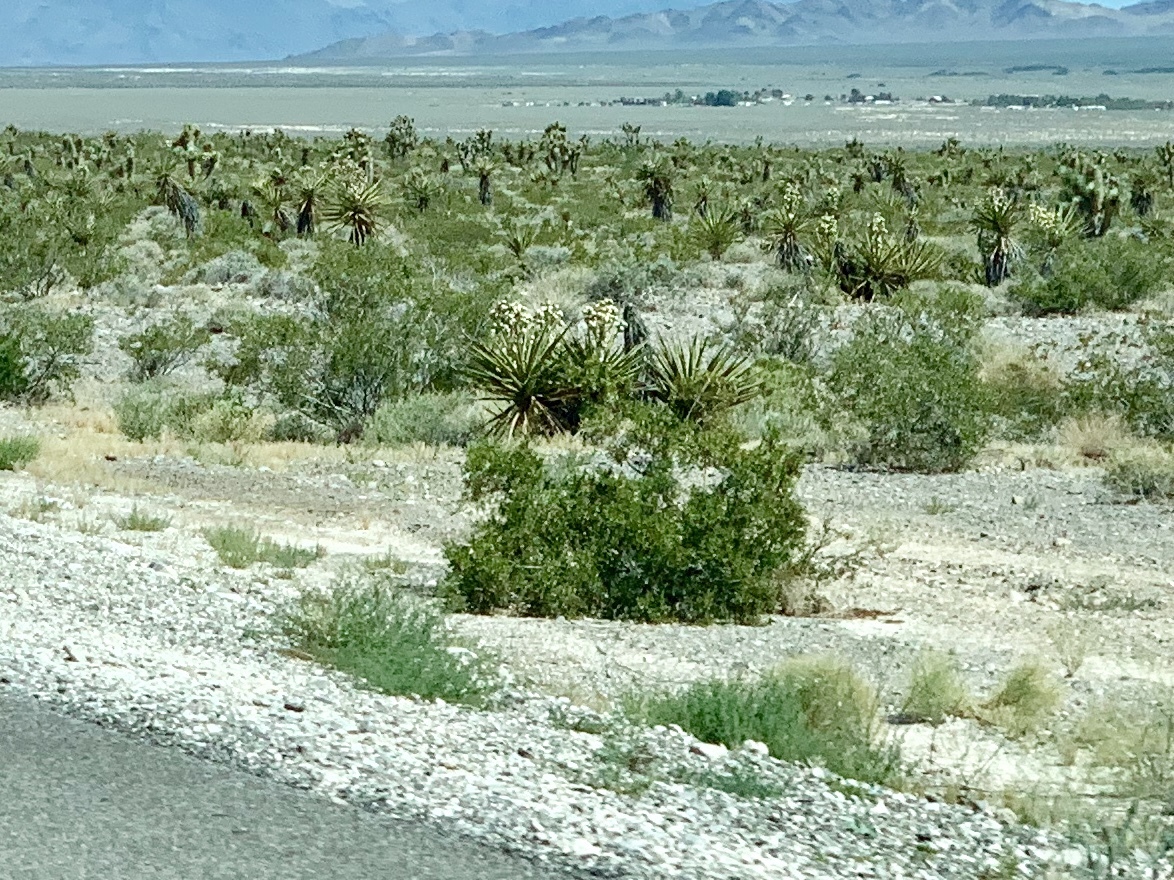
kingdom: Plantae
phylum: Tracheophyta
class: Magnoliopsida
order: Zygophyllales
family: Zygophyllaceae
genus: Larrea
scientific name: Larrea tridentata
